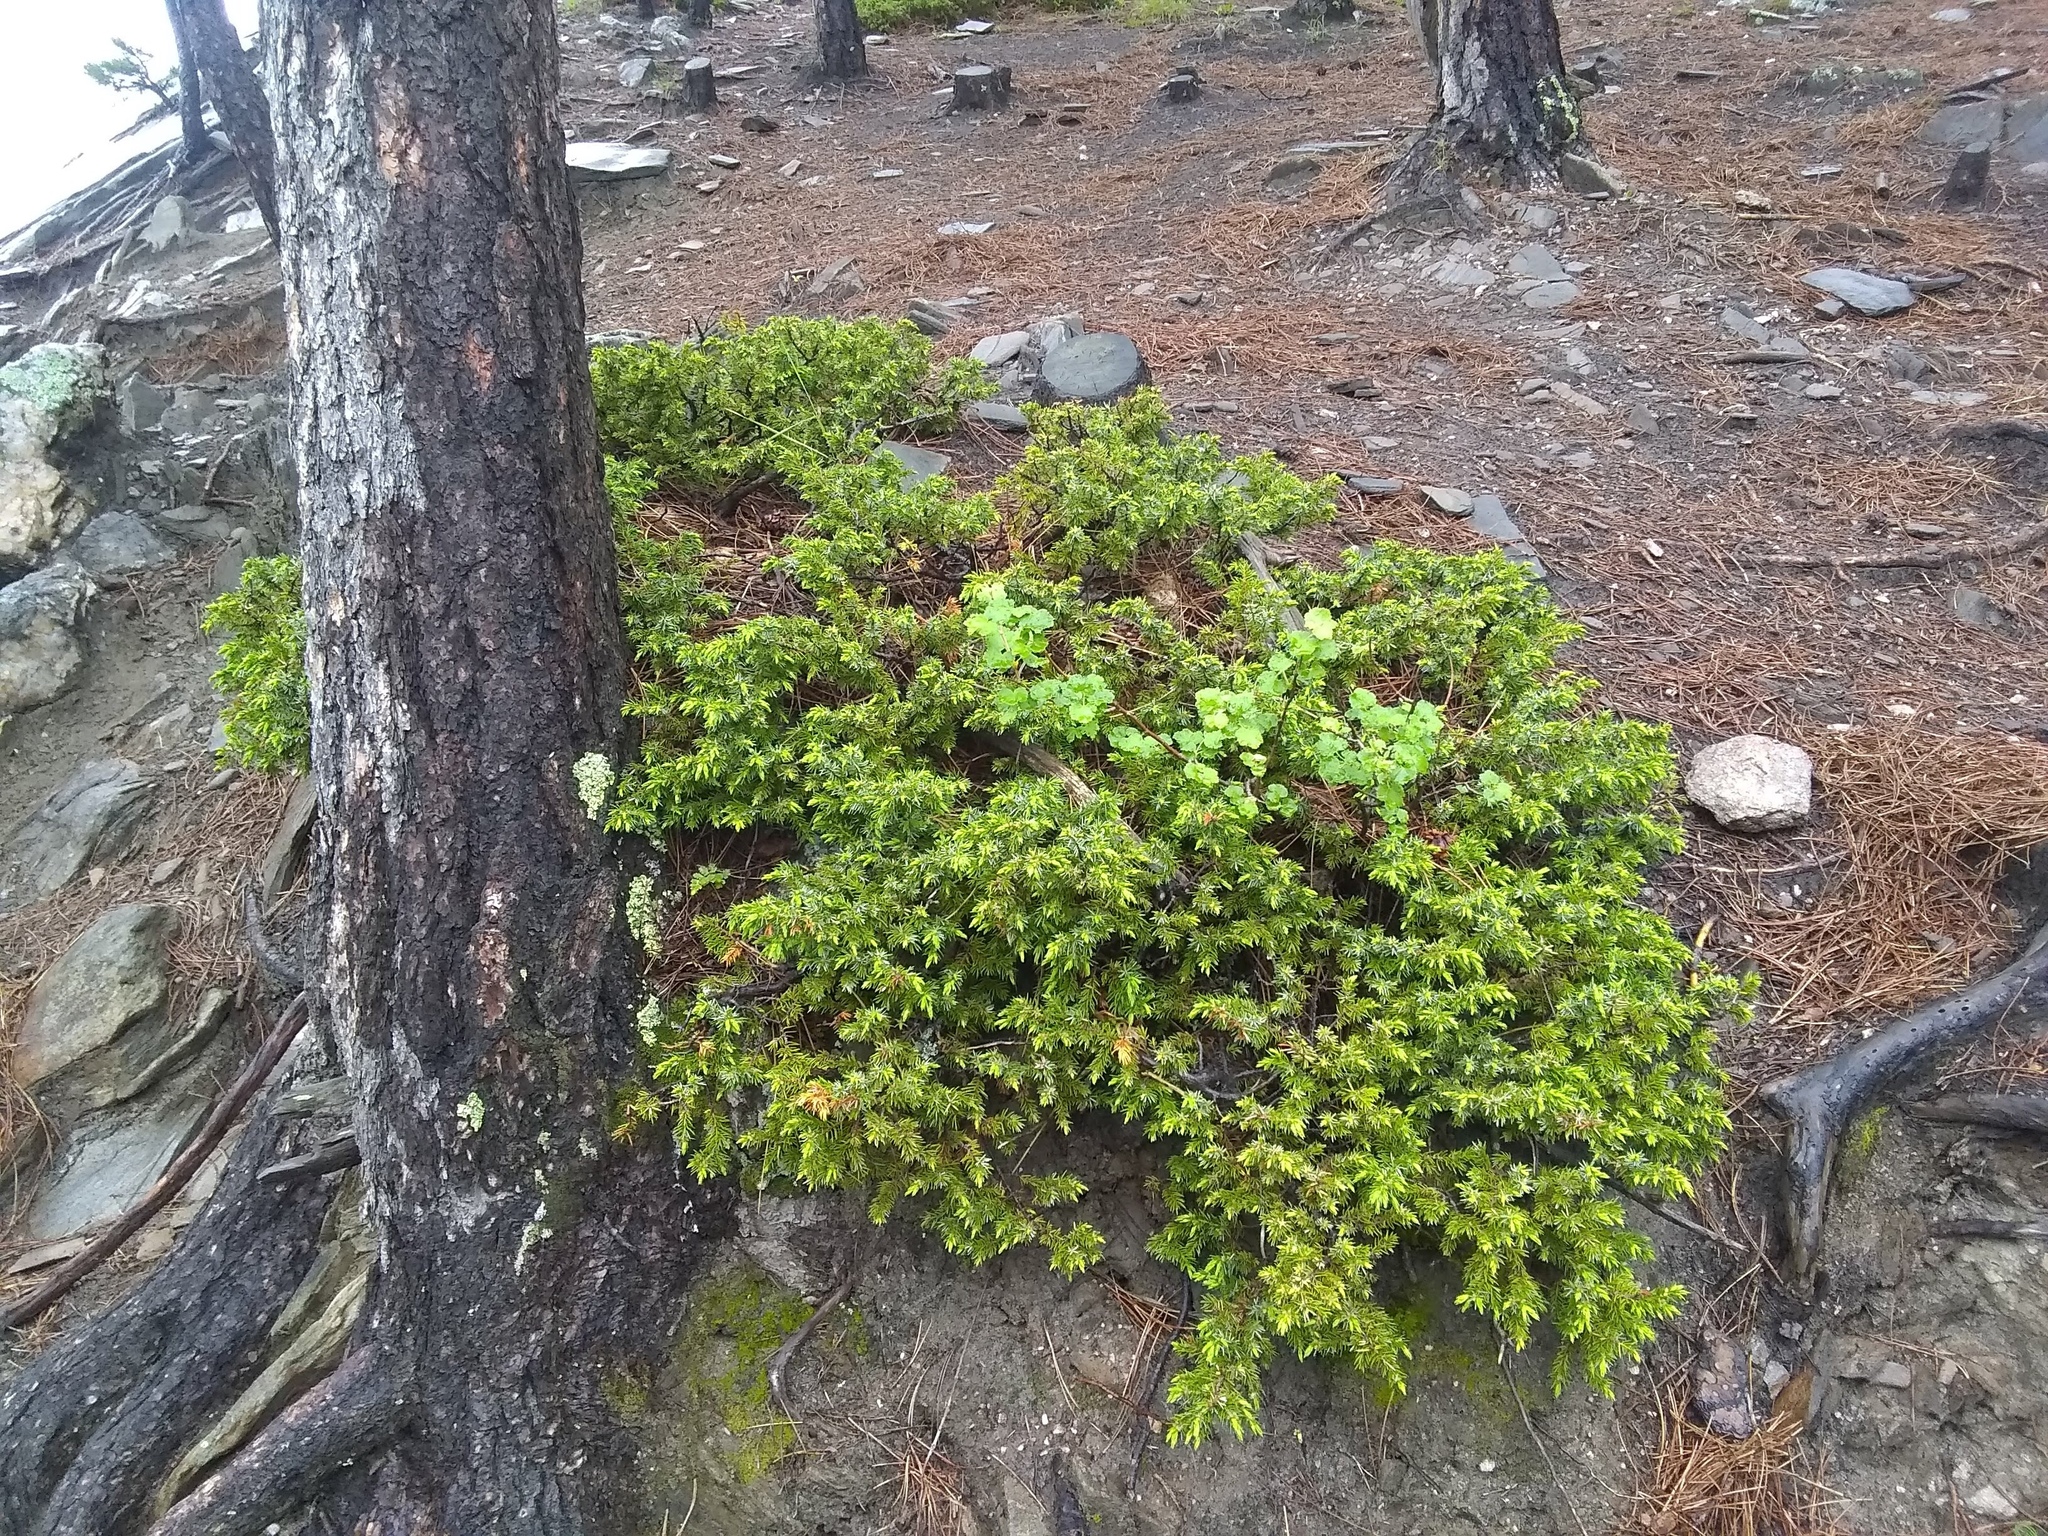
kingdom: Plantae
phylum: Tracheophyta
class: Pinopsida
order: Pinales
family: Cupressaceae
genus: Juniperus
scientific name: Juniperus communis
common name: Common juniper
